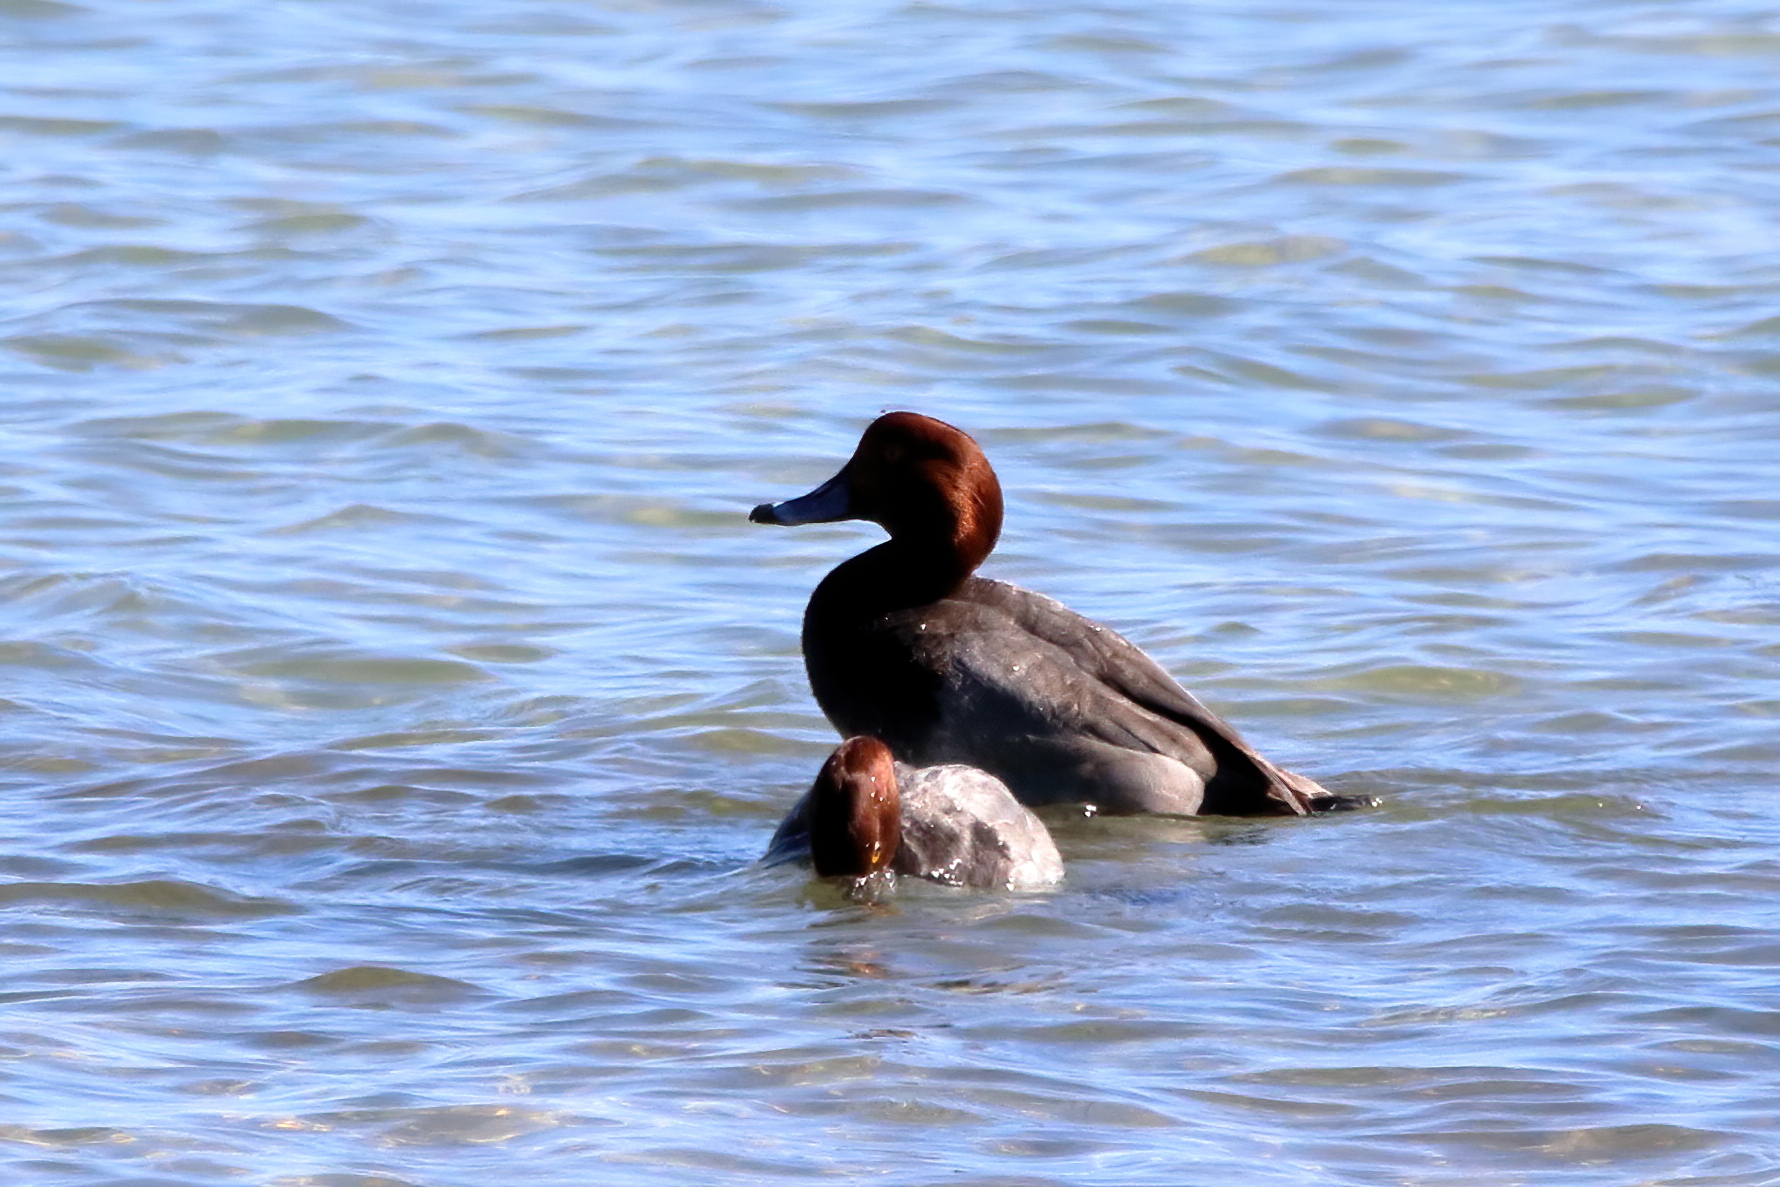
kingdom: Animalia
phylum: Chordata
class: Aves
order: Anseriformes
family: Anatidae
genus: Aythya
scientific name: Aythya americana
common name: Redhead
